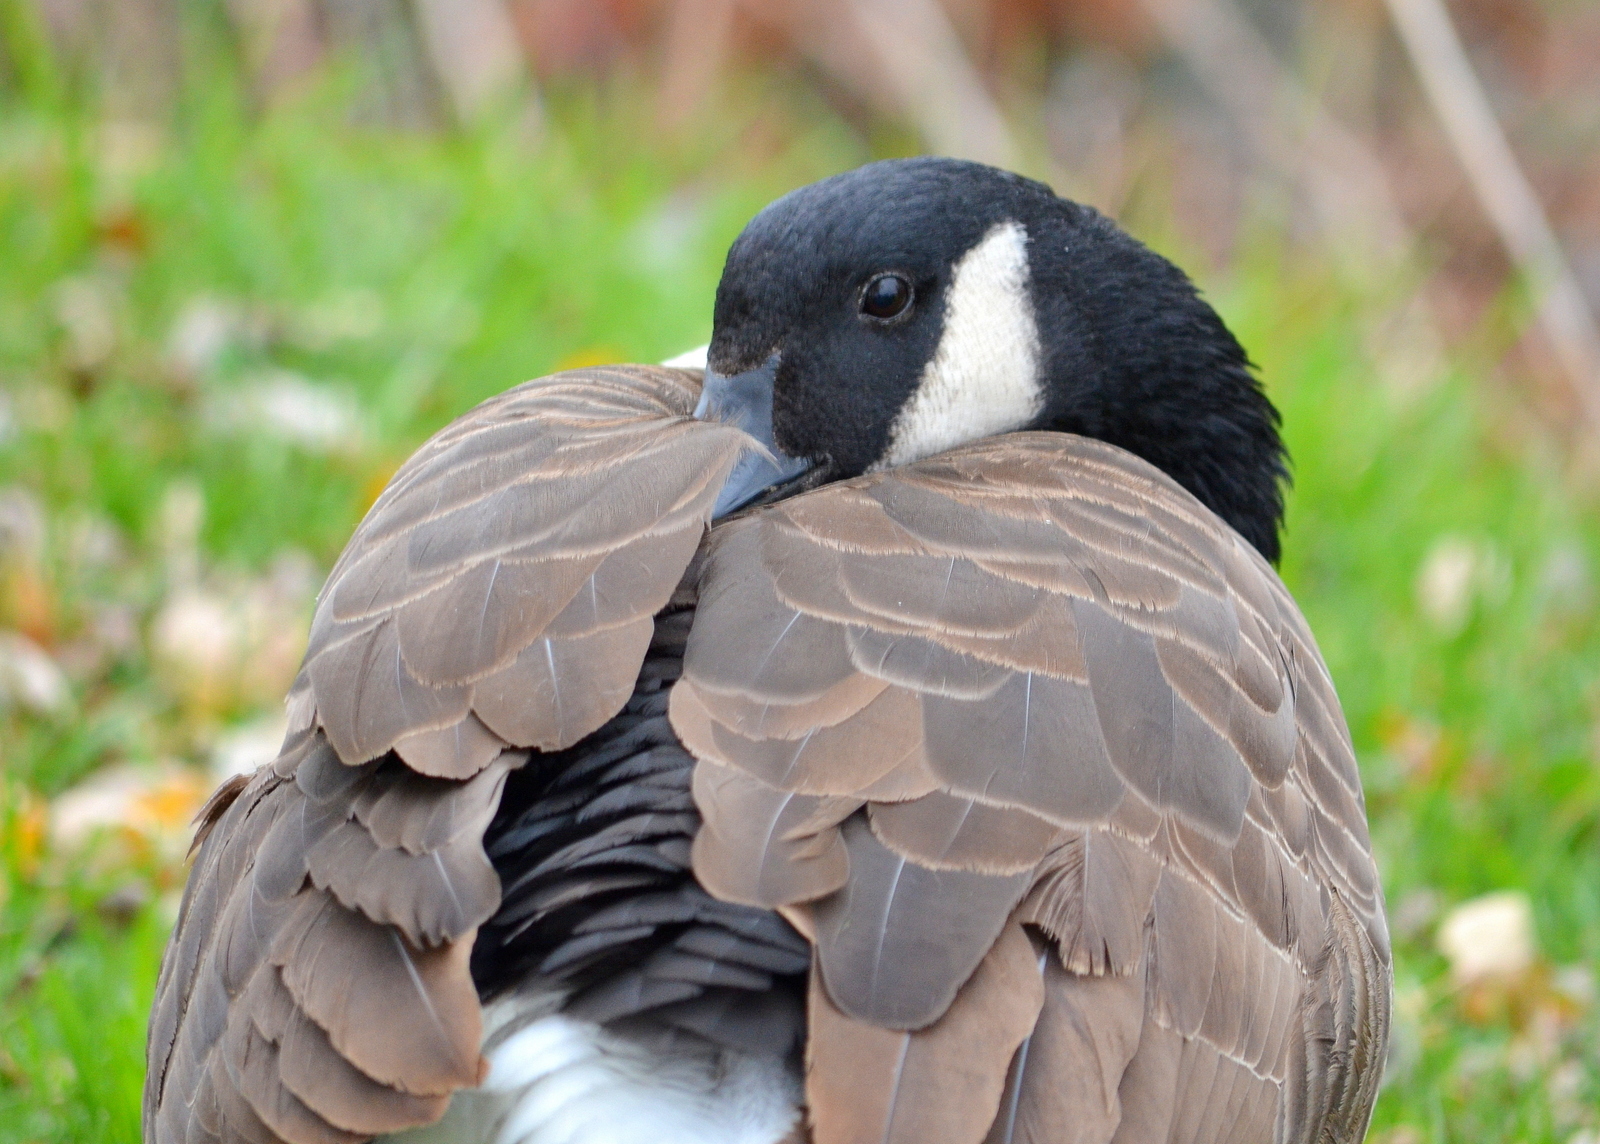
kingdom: Animalia
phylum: Chordata
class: Aves
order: Anseriformes
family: Anatidae
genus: Branta
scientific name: Branta canadensis
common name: Canada goose
